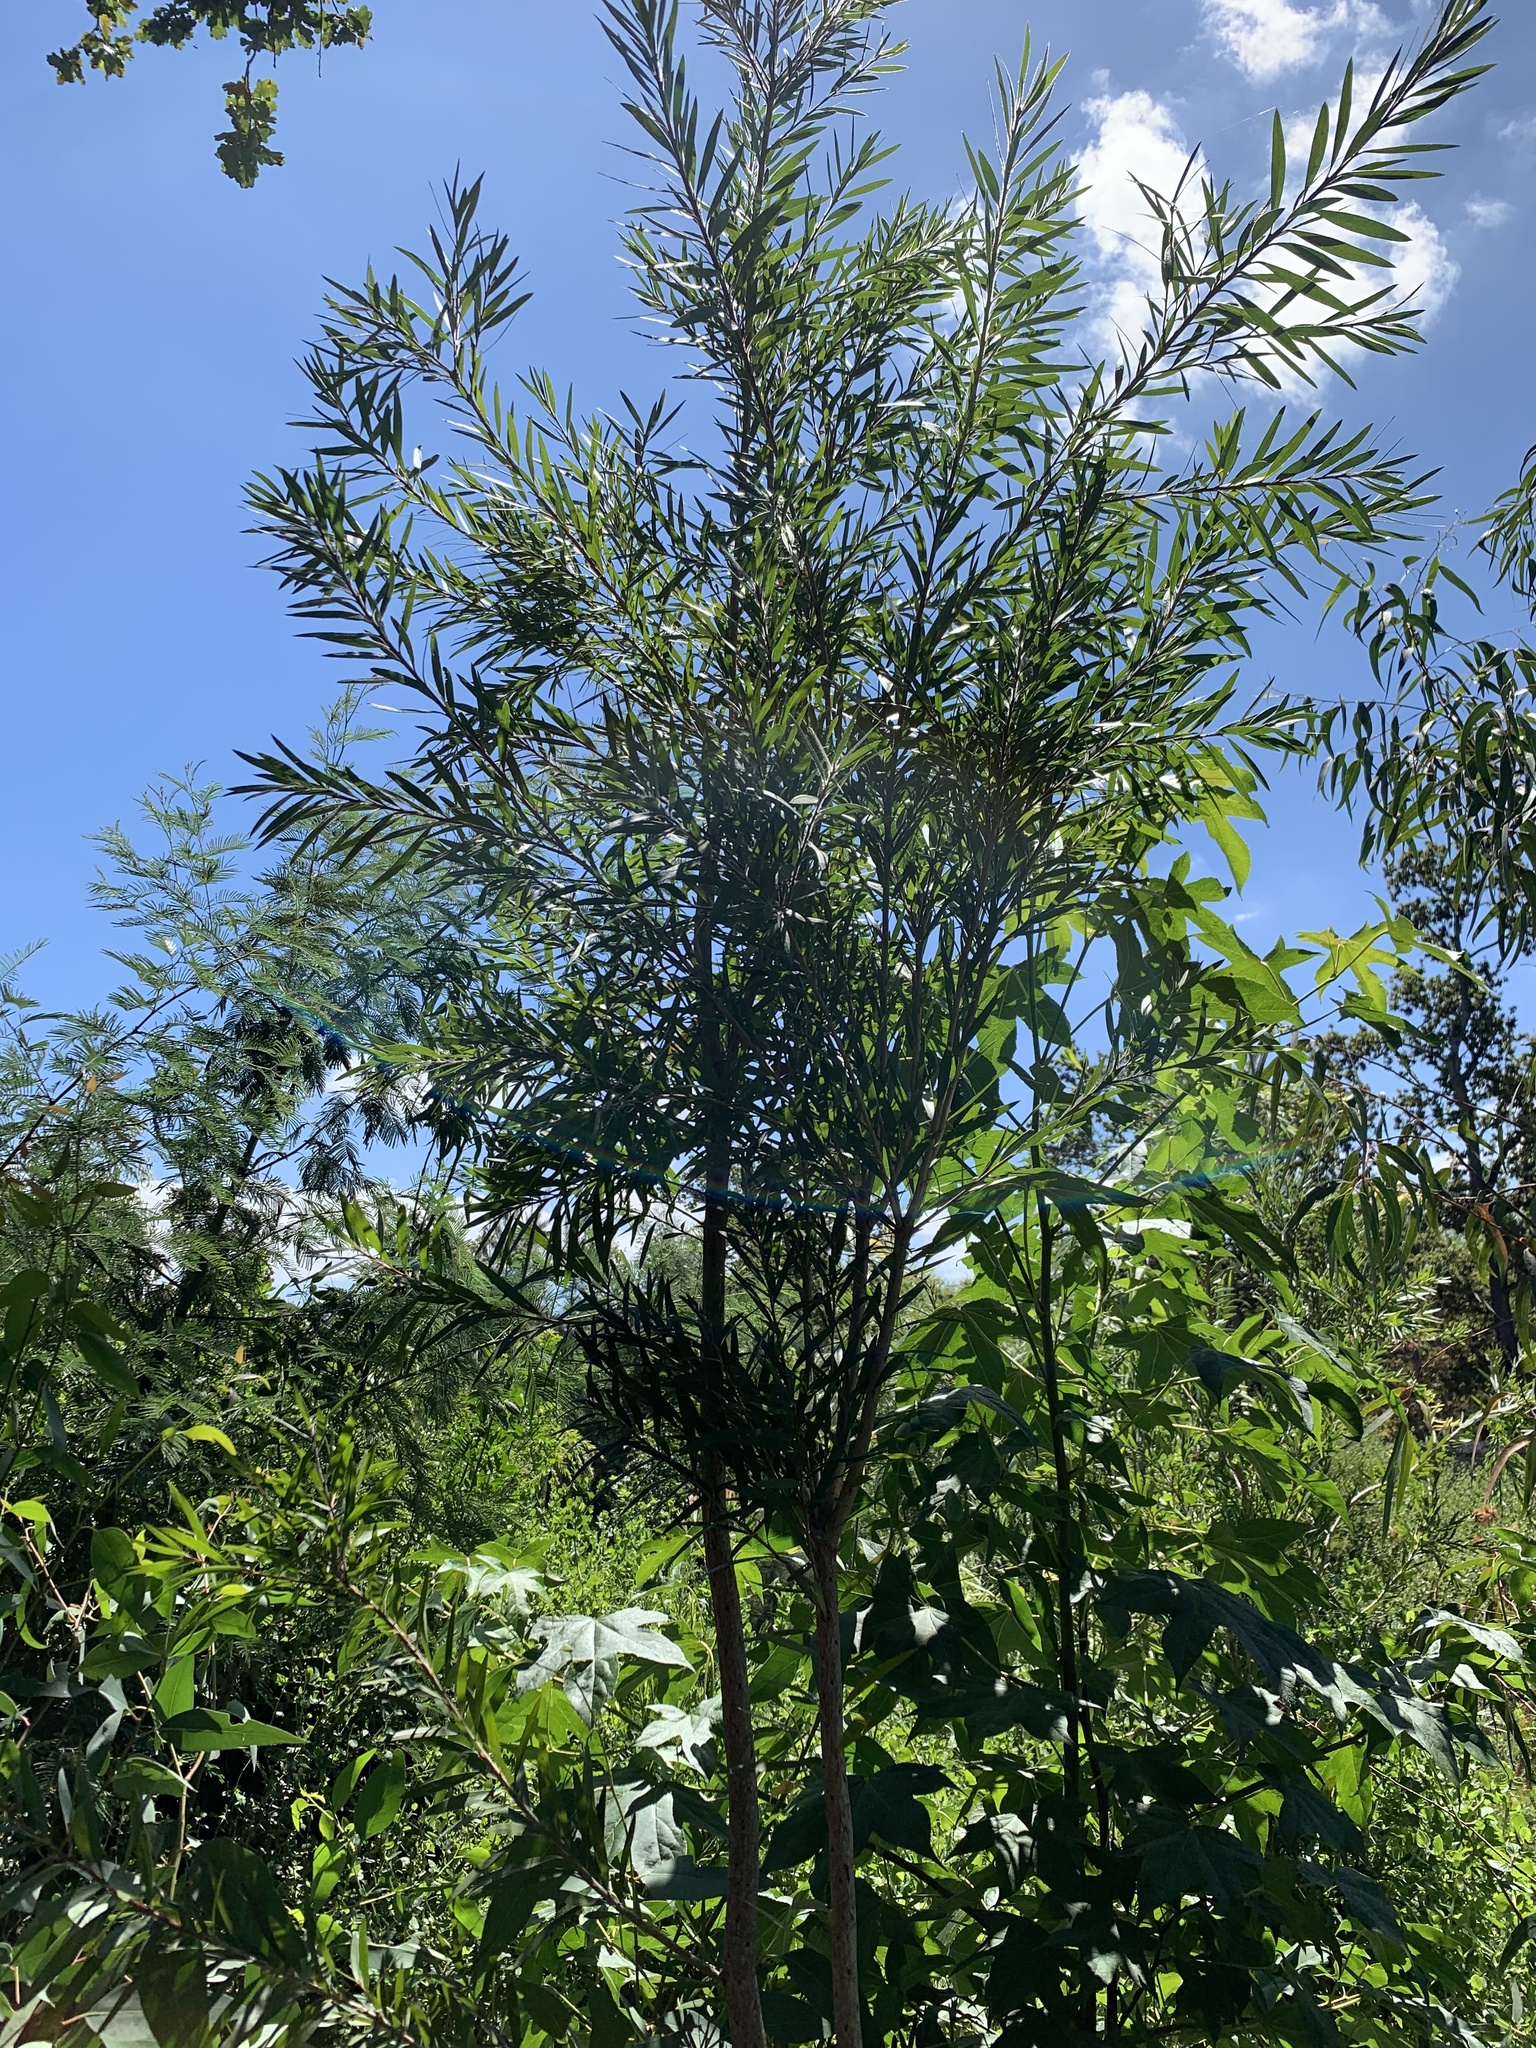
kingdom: Plantae
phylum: Tracheophyta
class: Magnoliopsida
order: Myrtales
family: Myrtaceae
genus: Callistemon
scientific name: Callistemon viminalis
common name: Drooping bottlebrush
